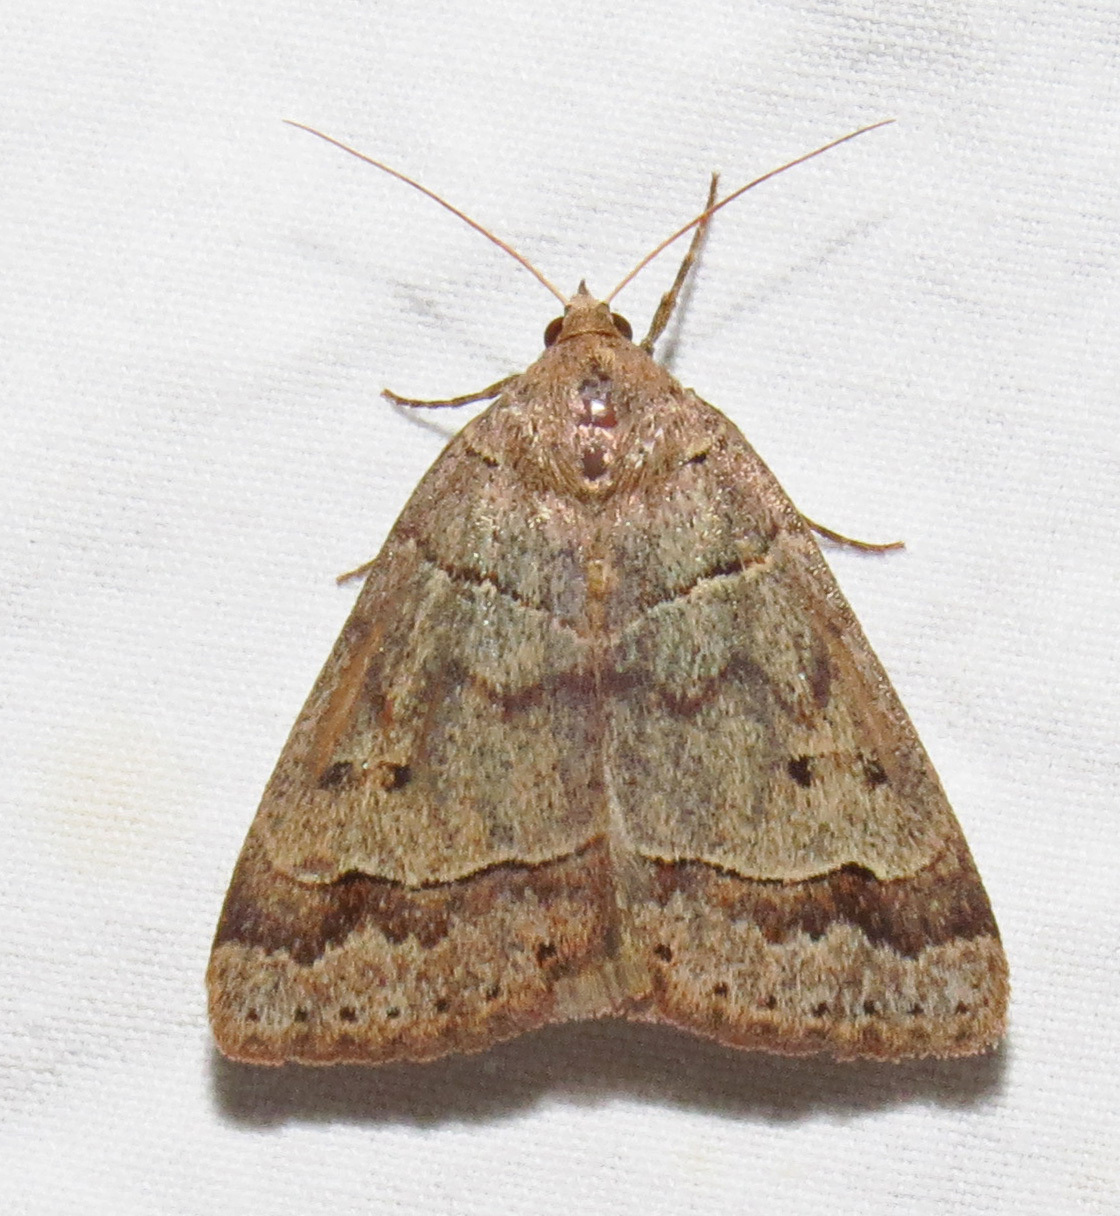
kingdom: Animalia
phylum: Arthropoda
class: Insecta
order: Lepidoptera
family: Erebidae
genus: Phoberia
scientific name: Phoberia atomaris
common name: Common oak moth
